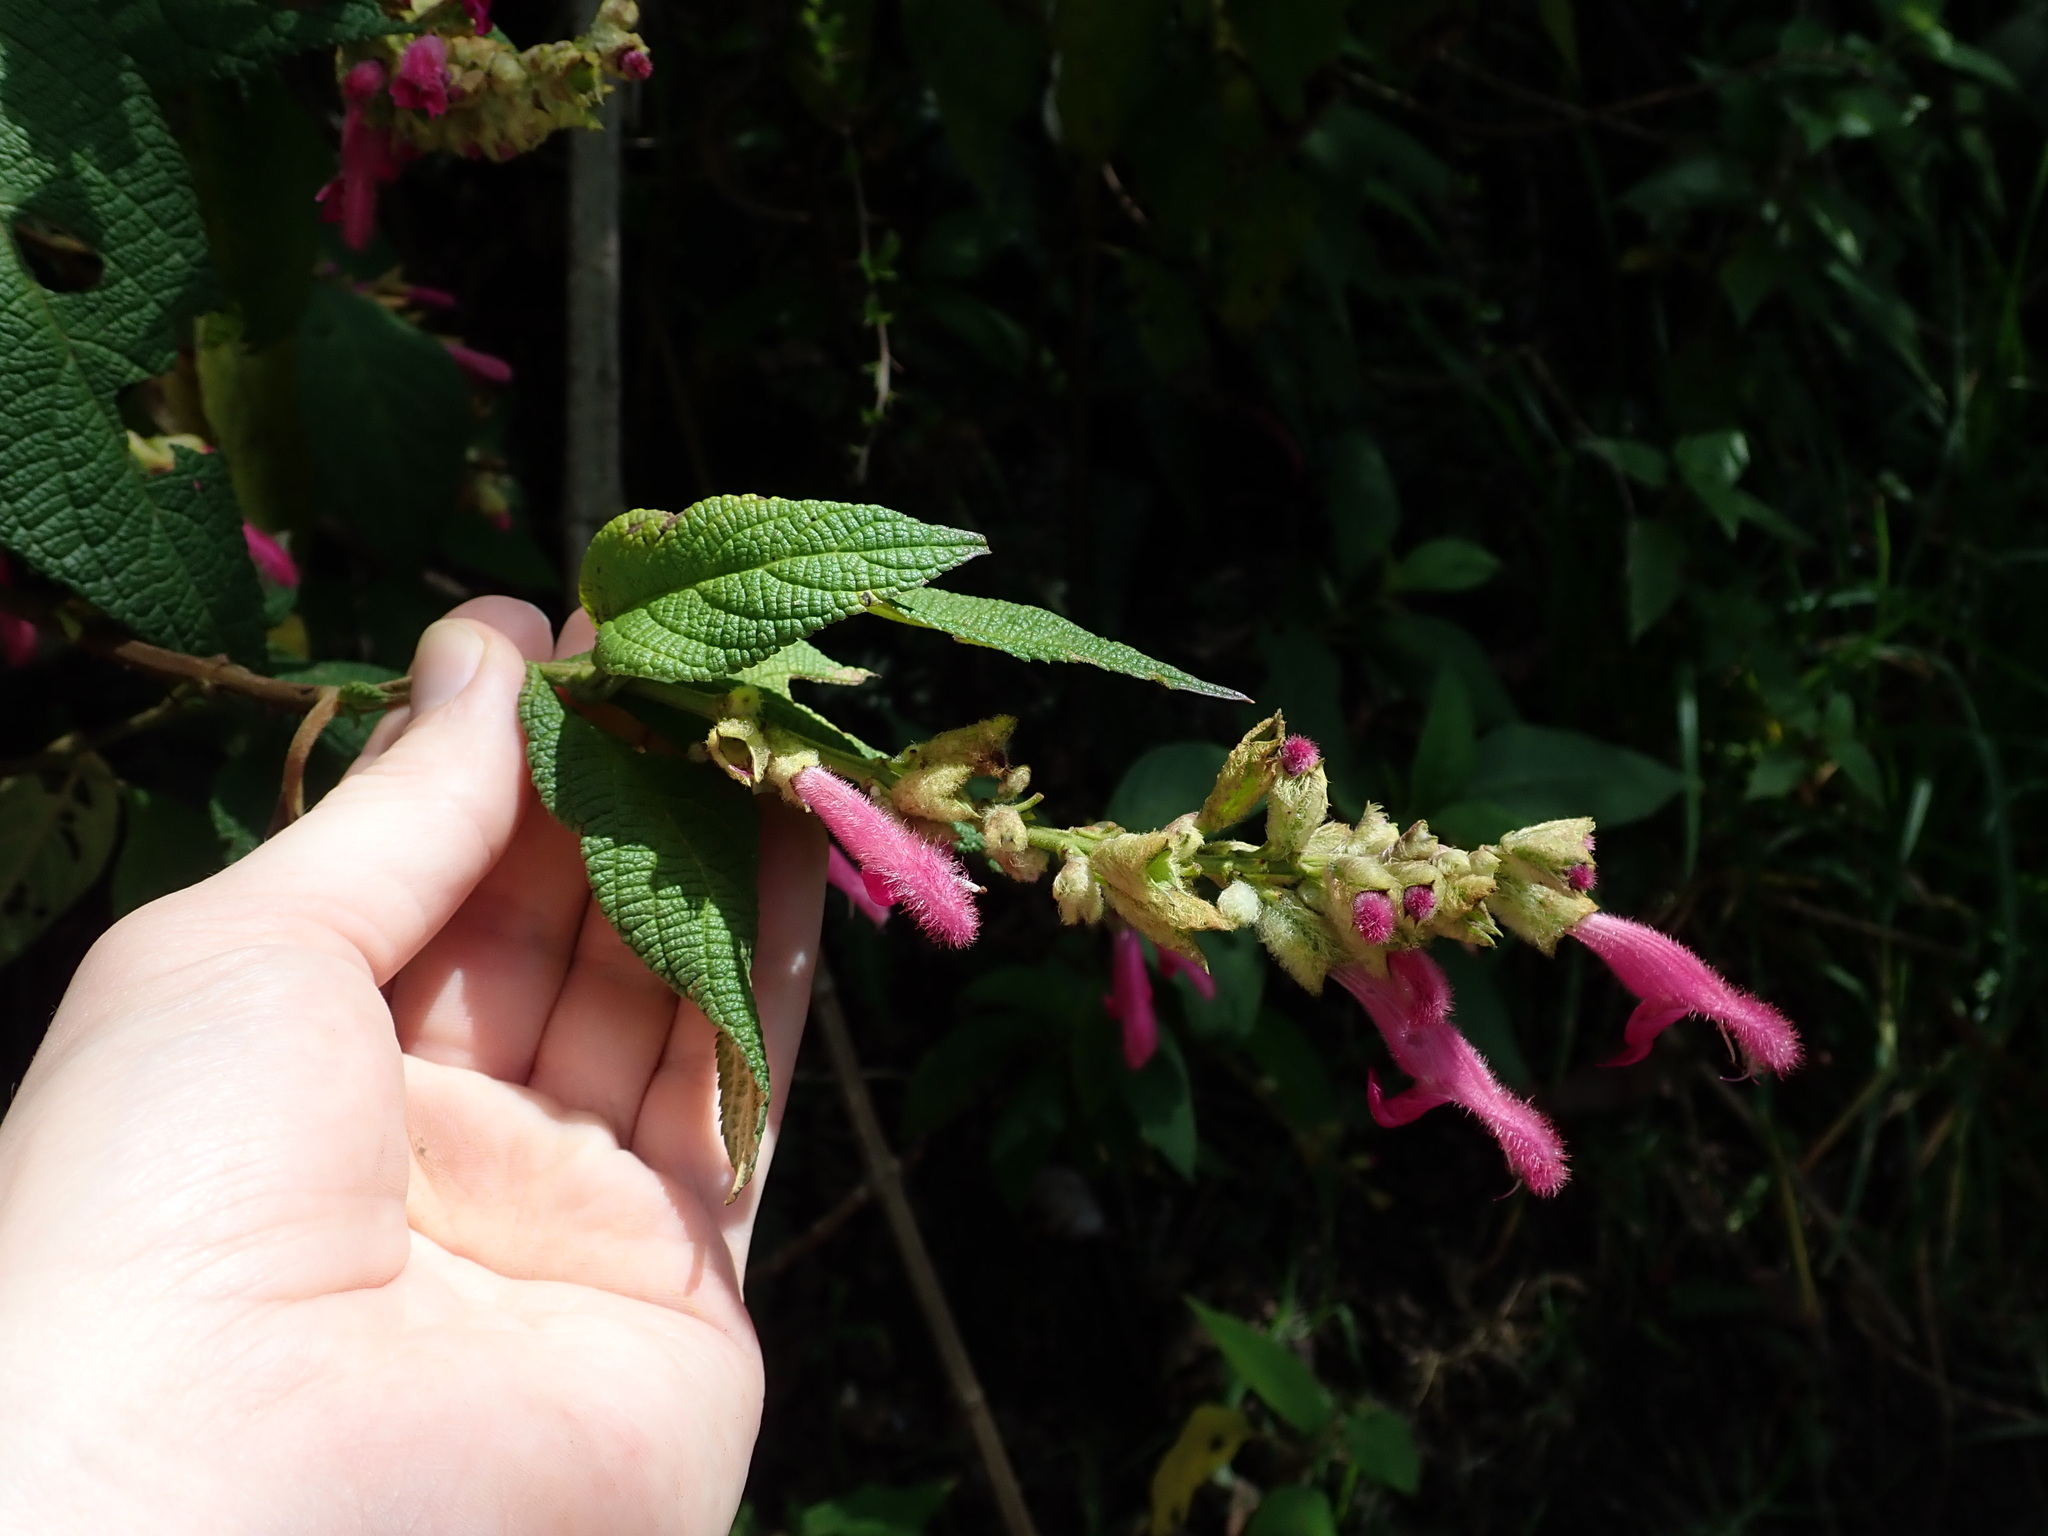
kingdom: Plantae
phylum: Tracheophyta
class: Magnoliopsida
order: Lamiales
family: Lamiaceae
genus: Salvia
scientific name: Salvia tortuosa
